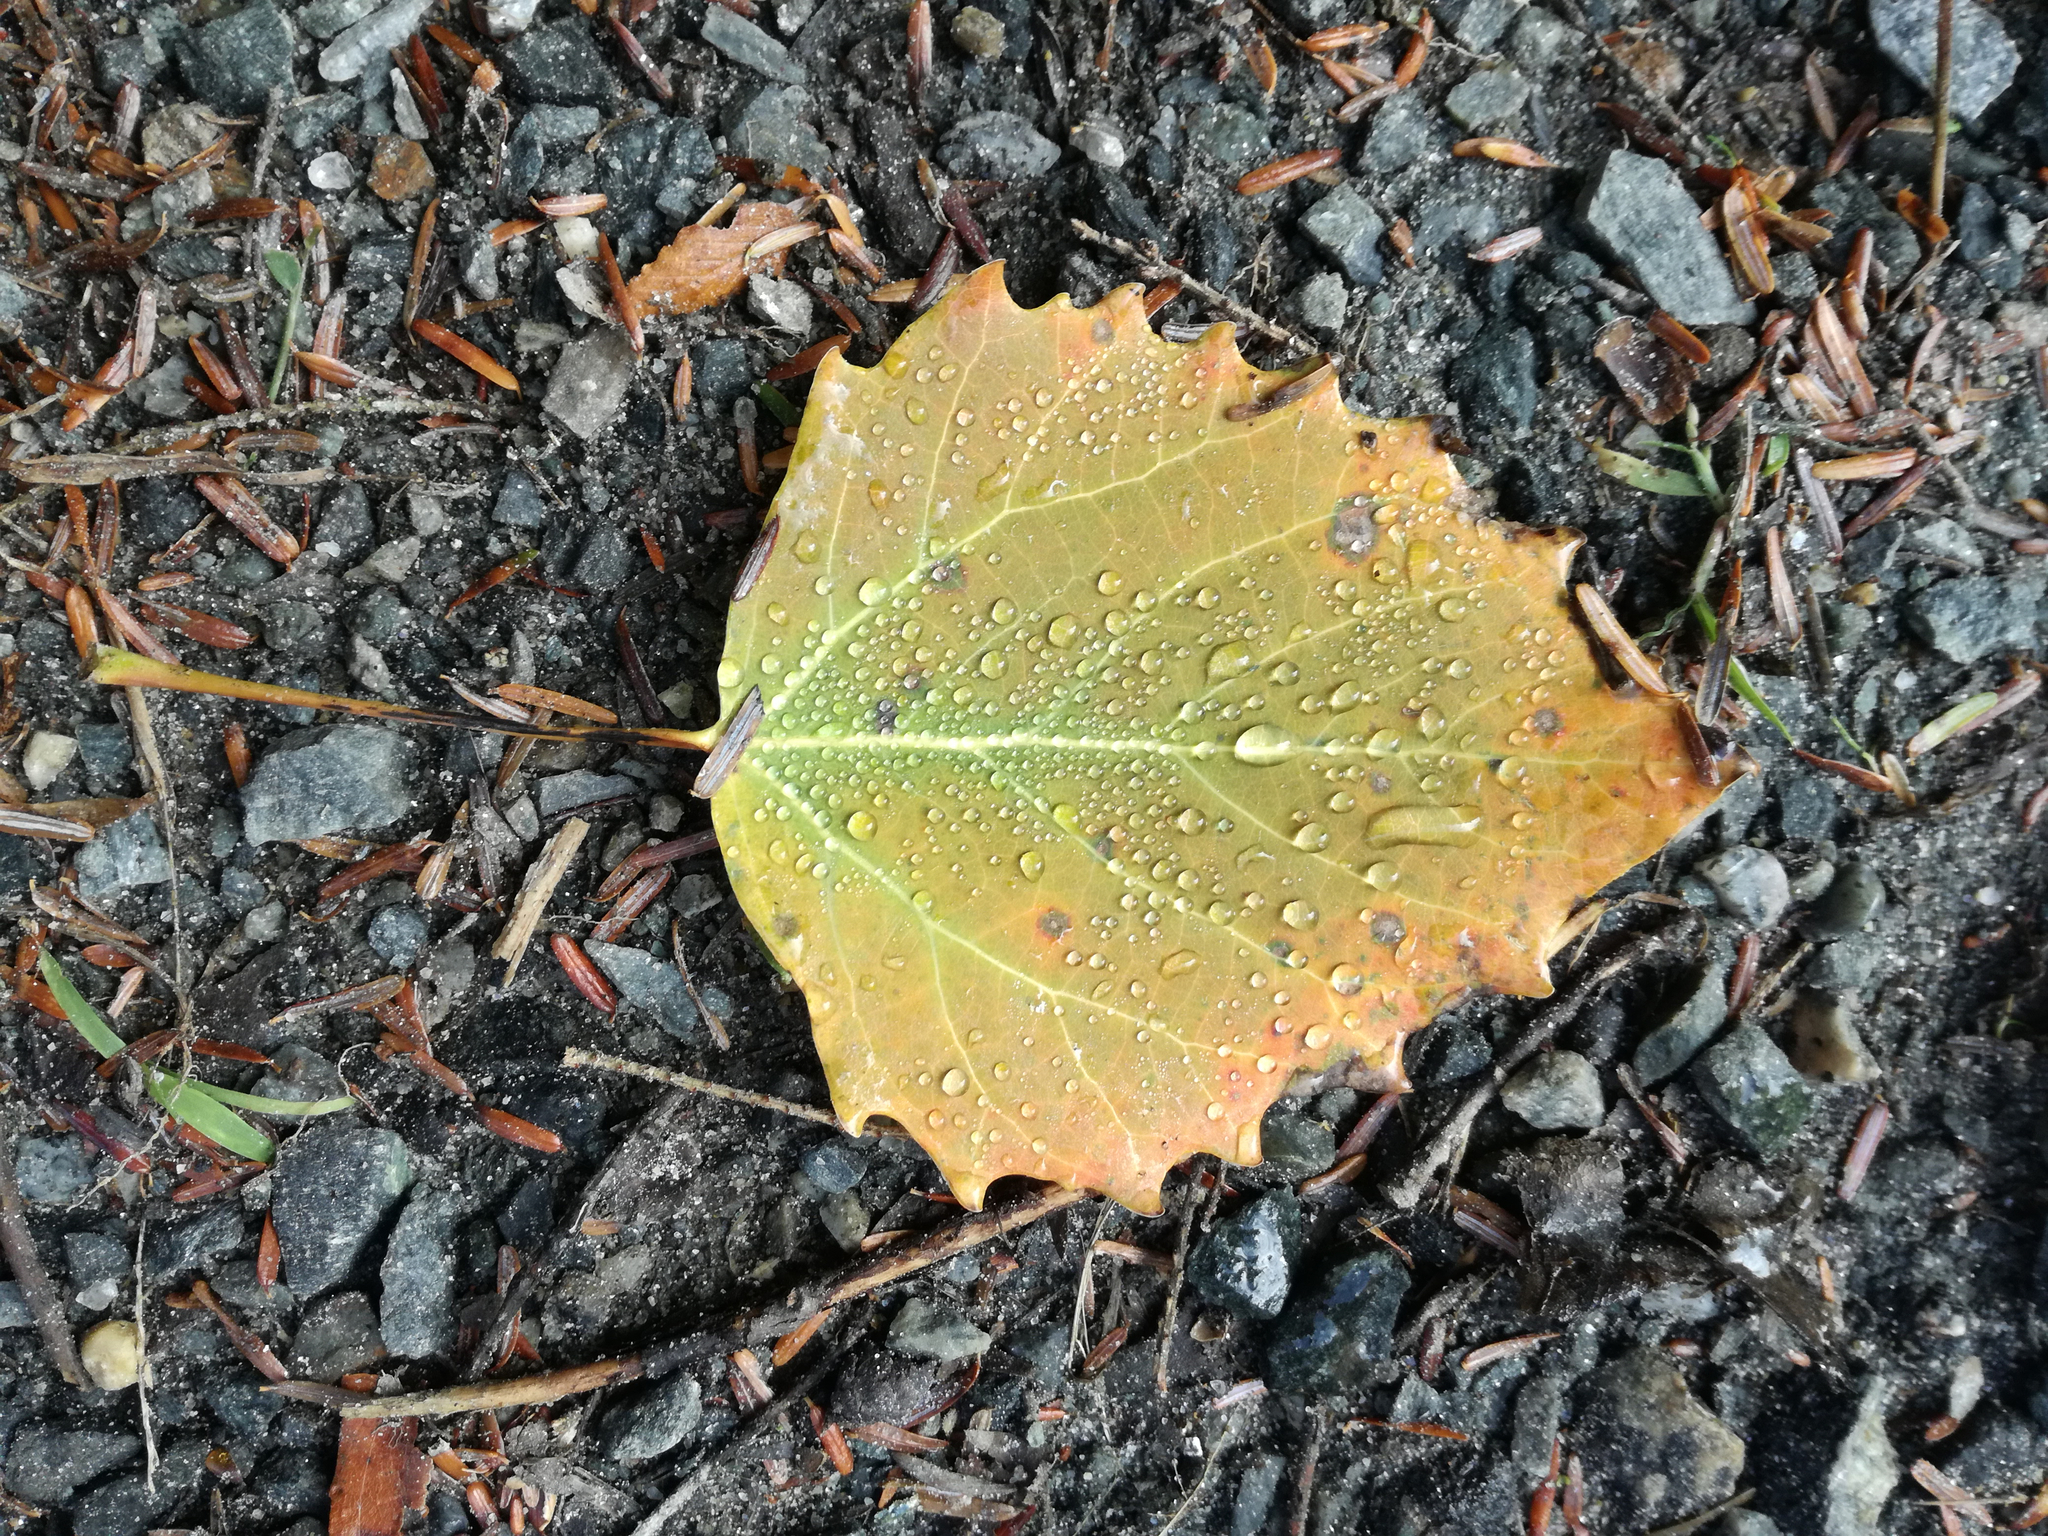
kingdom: Plantae
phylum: Tracheophyta
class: Magnoliopsida
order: Malpighiales
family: Salicaceae
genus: Populus
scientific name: Populus grandidentata
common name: Bigtooth aspen
